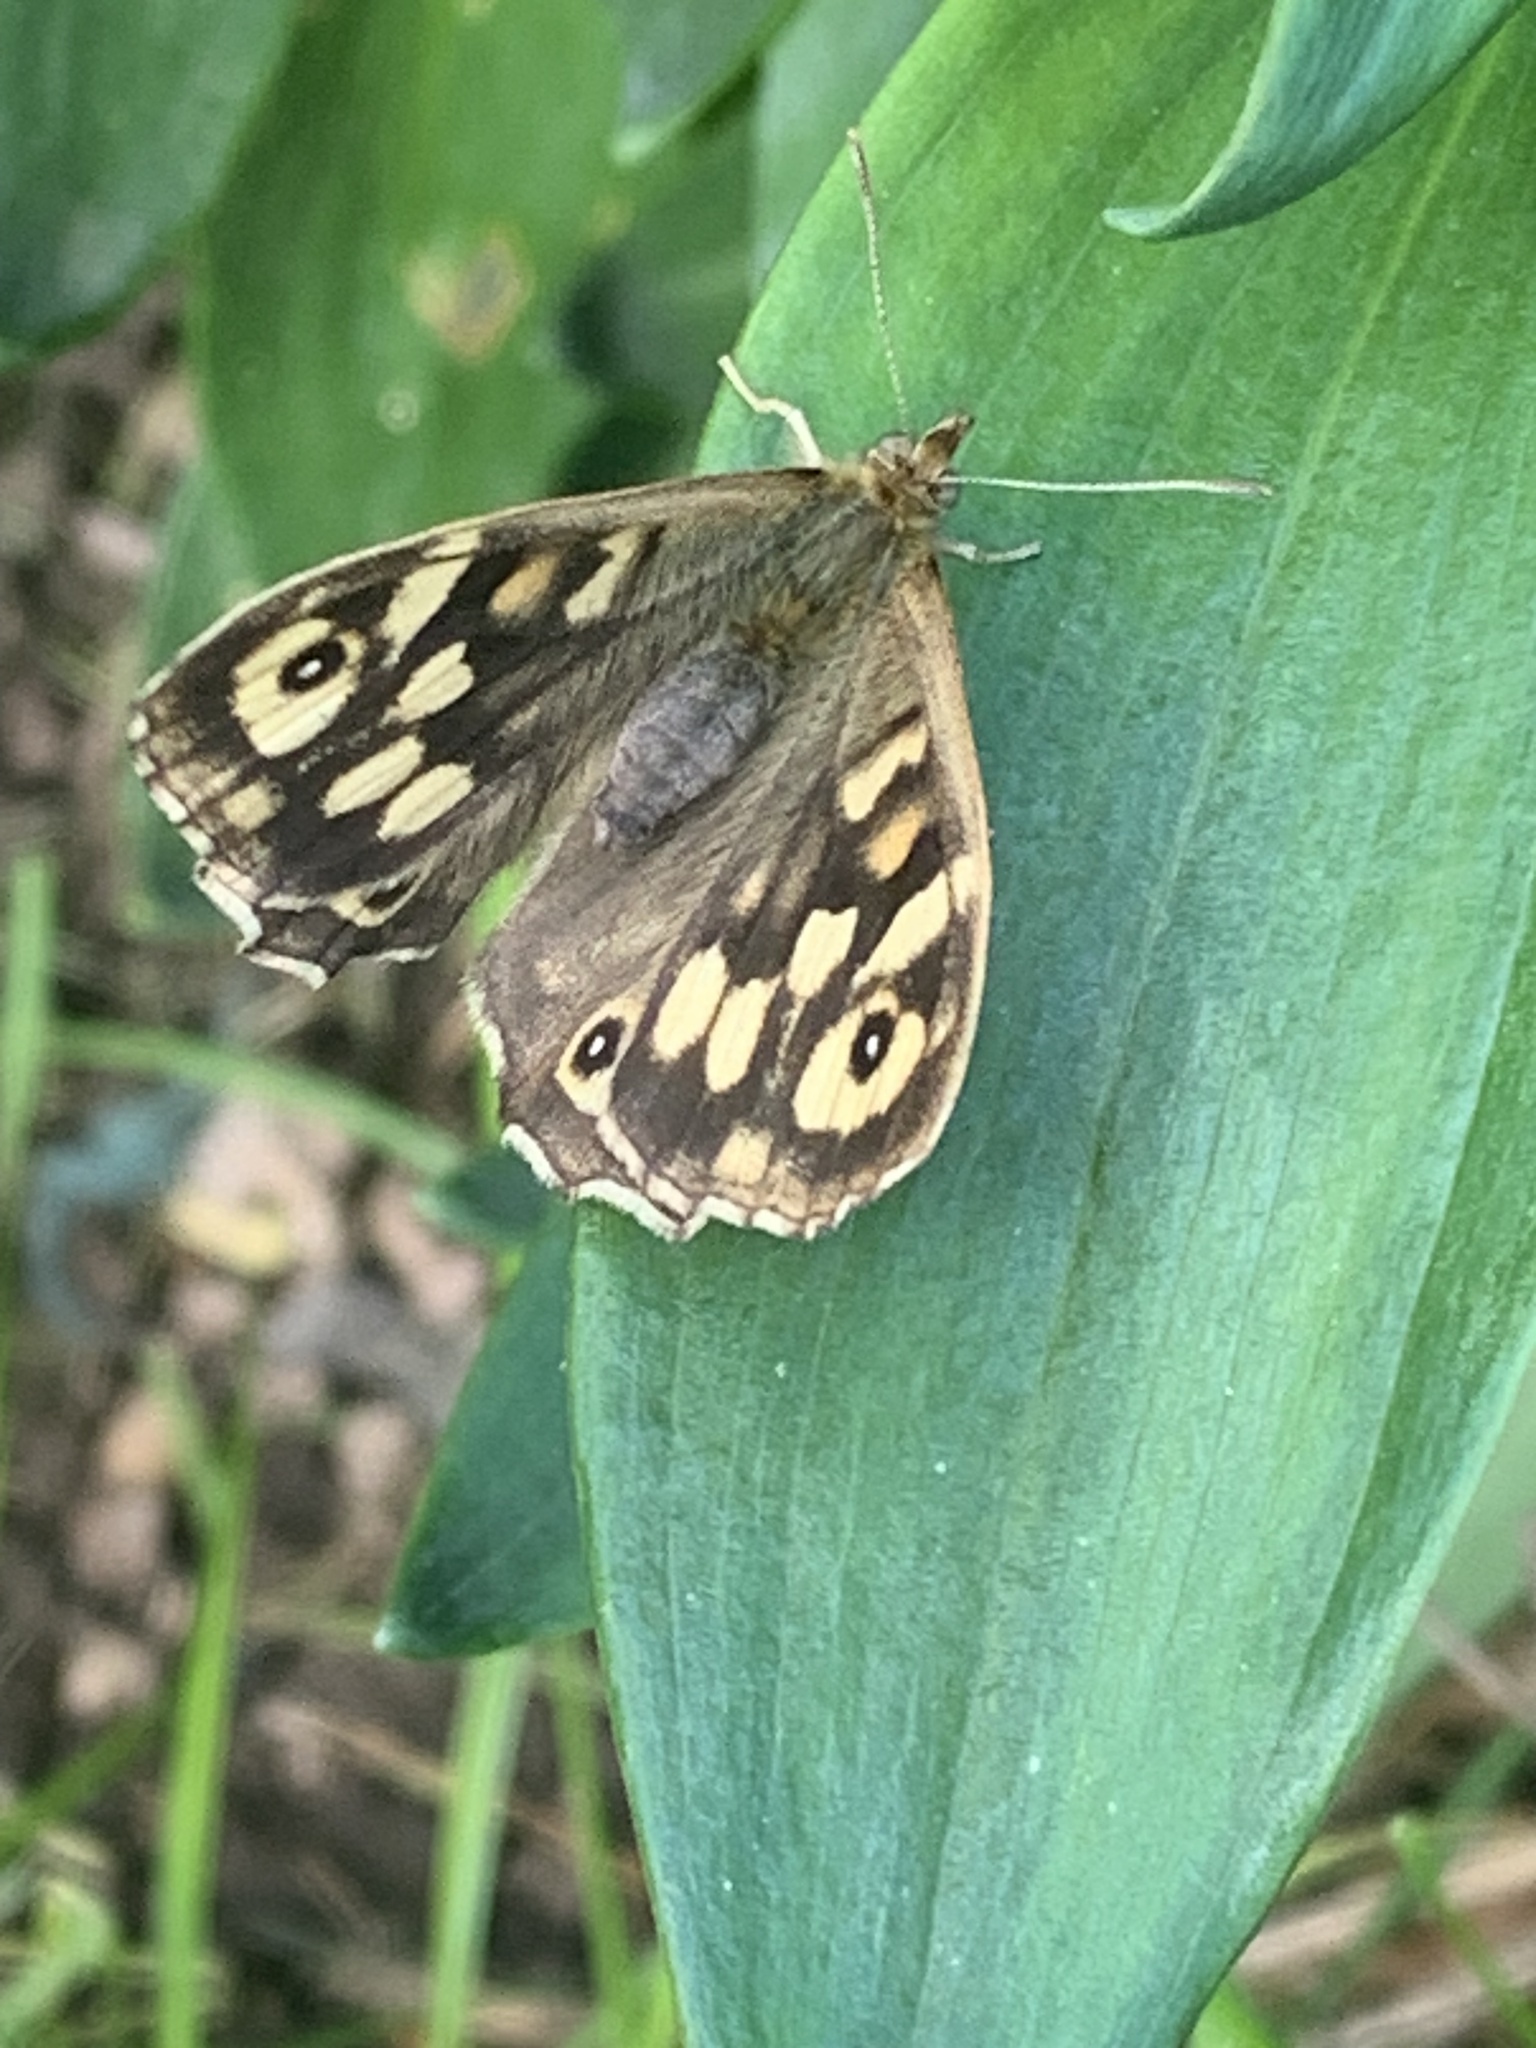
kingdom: Animalia
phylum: Arthropoda
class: Insecta
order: Lepidoptera
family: Nymphalidae
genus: Pararge
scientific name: Pararge aegeria
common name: Speckled wood
